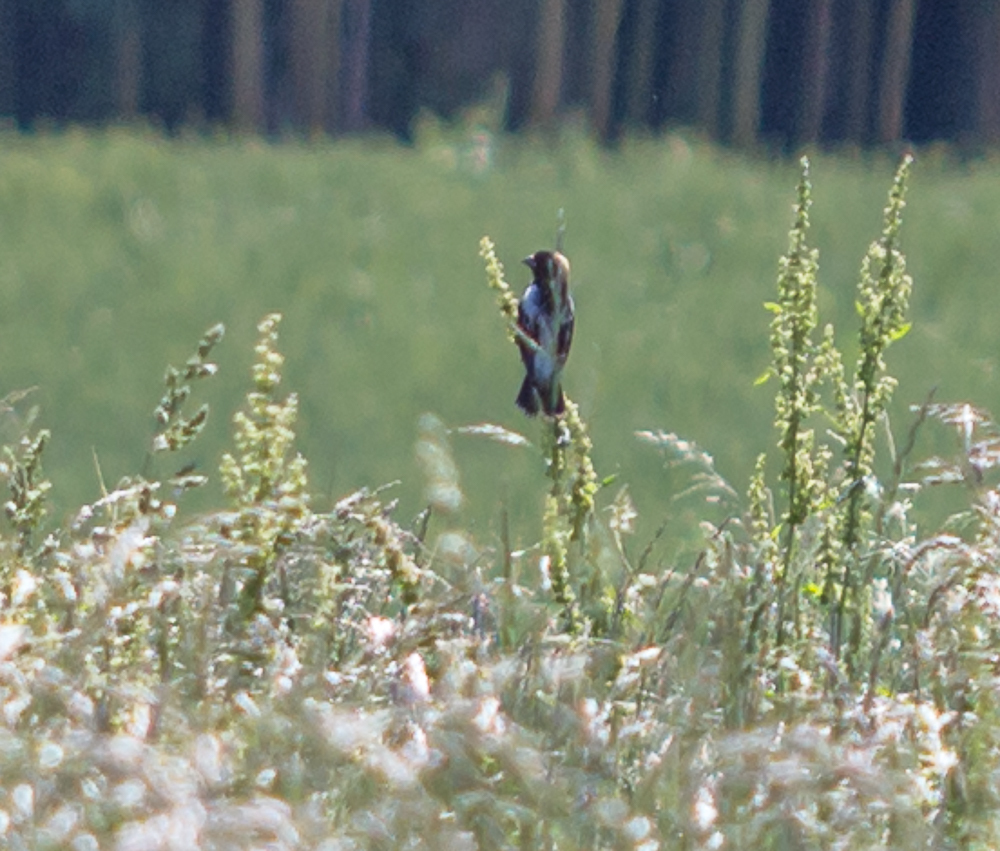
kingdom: Animalia
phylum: Chordata
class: Aves
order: Passeriformes
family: Icteridae
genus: Dolichonyx
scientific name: Dolichonyx oryzivorus
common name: Bobolink
